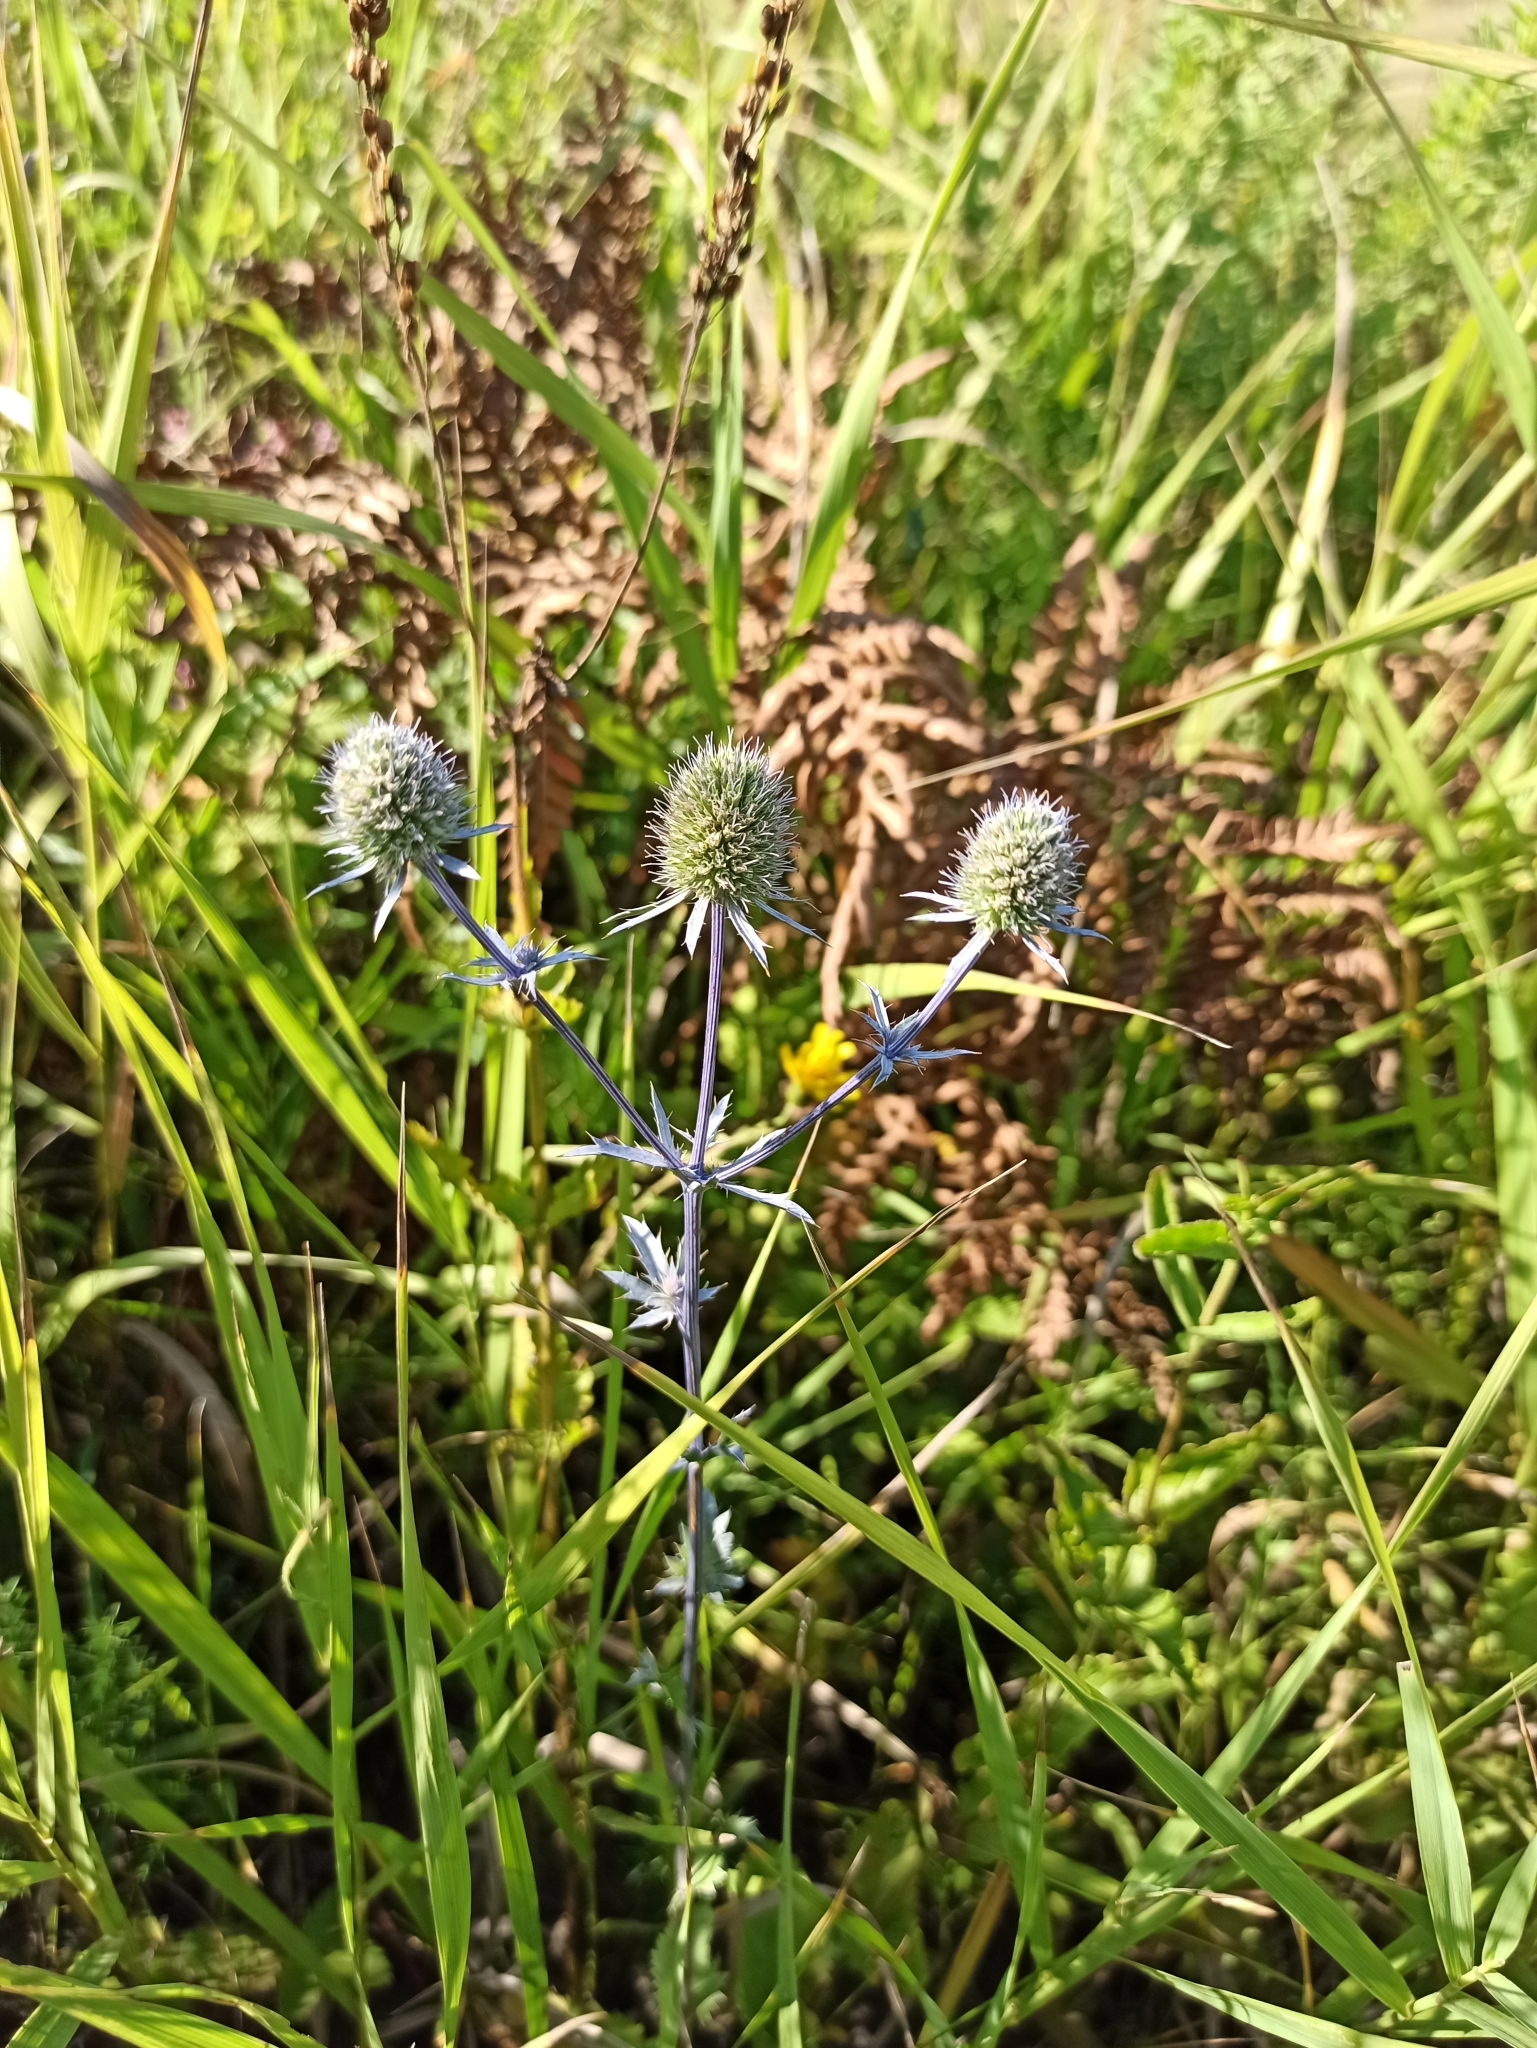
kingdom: Plantae
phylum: Tracheophyta
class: Magnoliopsida
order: Apiales
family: Apiaceae
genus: Eryngium
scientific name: Eryngium planum
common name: Blue eryngo
